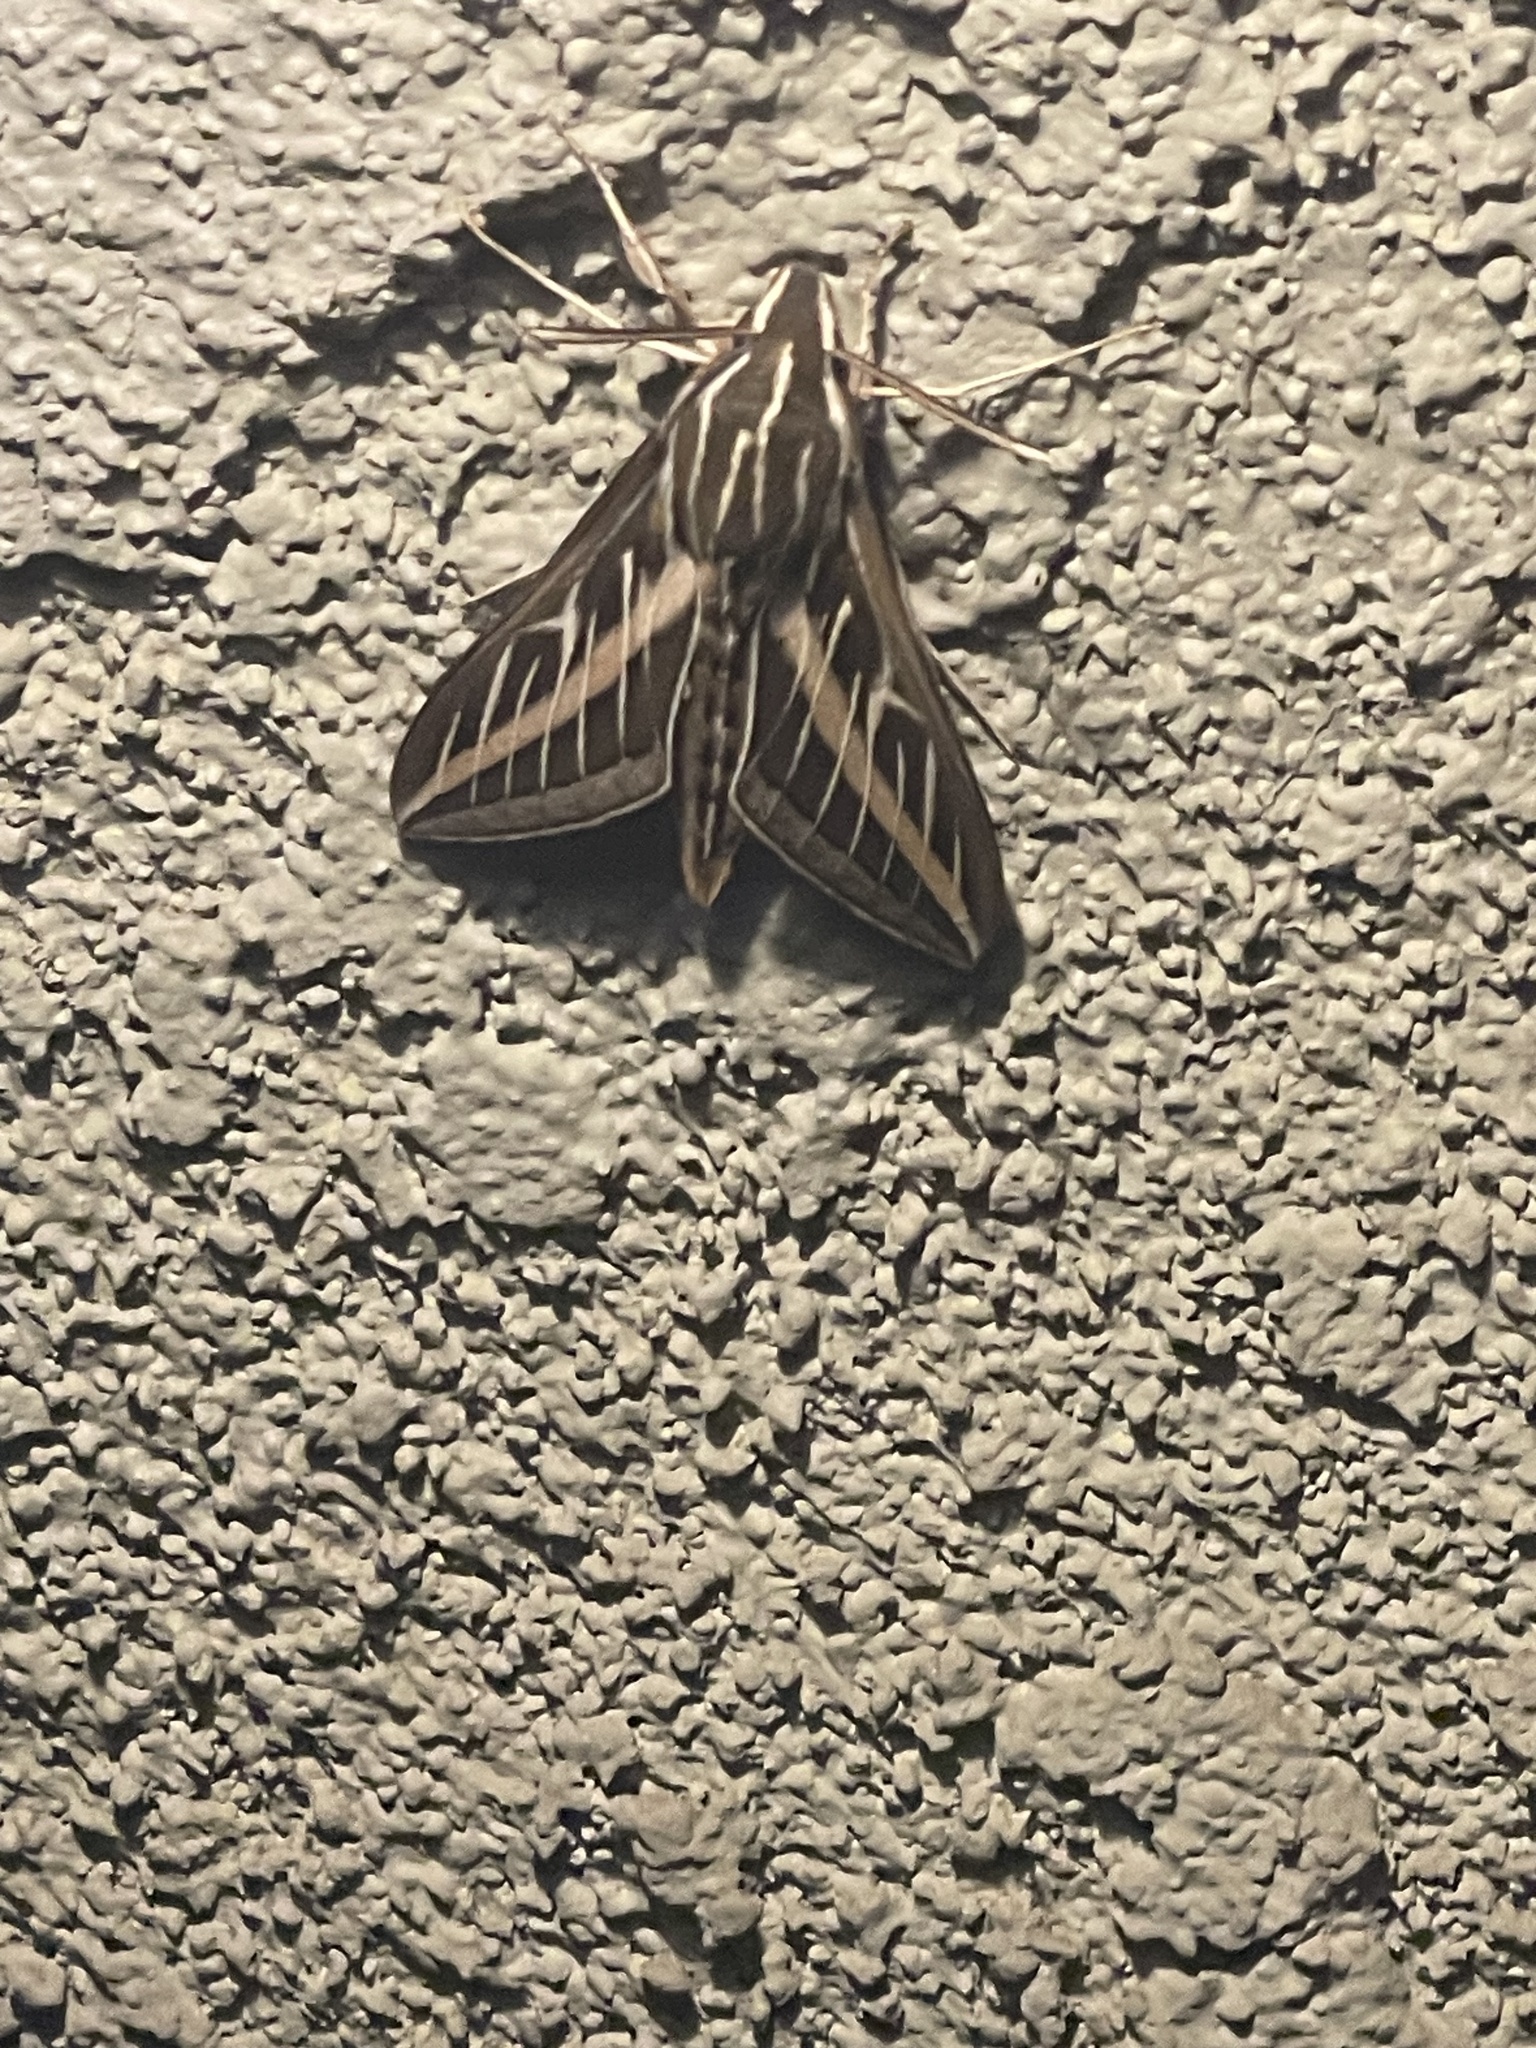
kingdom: Animalia
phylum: Arthropoda
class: Insecta
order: Lepidoptera
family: Sphingidae
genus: Hyles
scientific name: Hyles lineata
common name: White-lined sphinx
